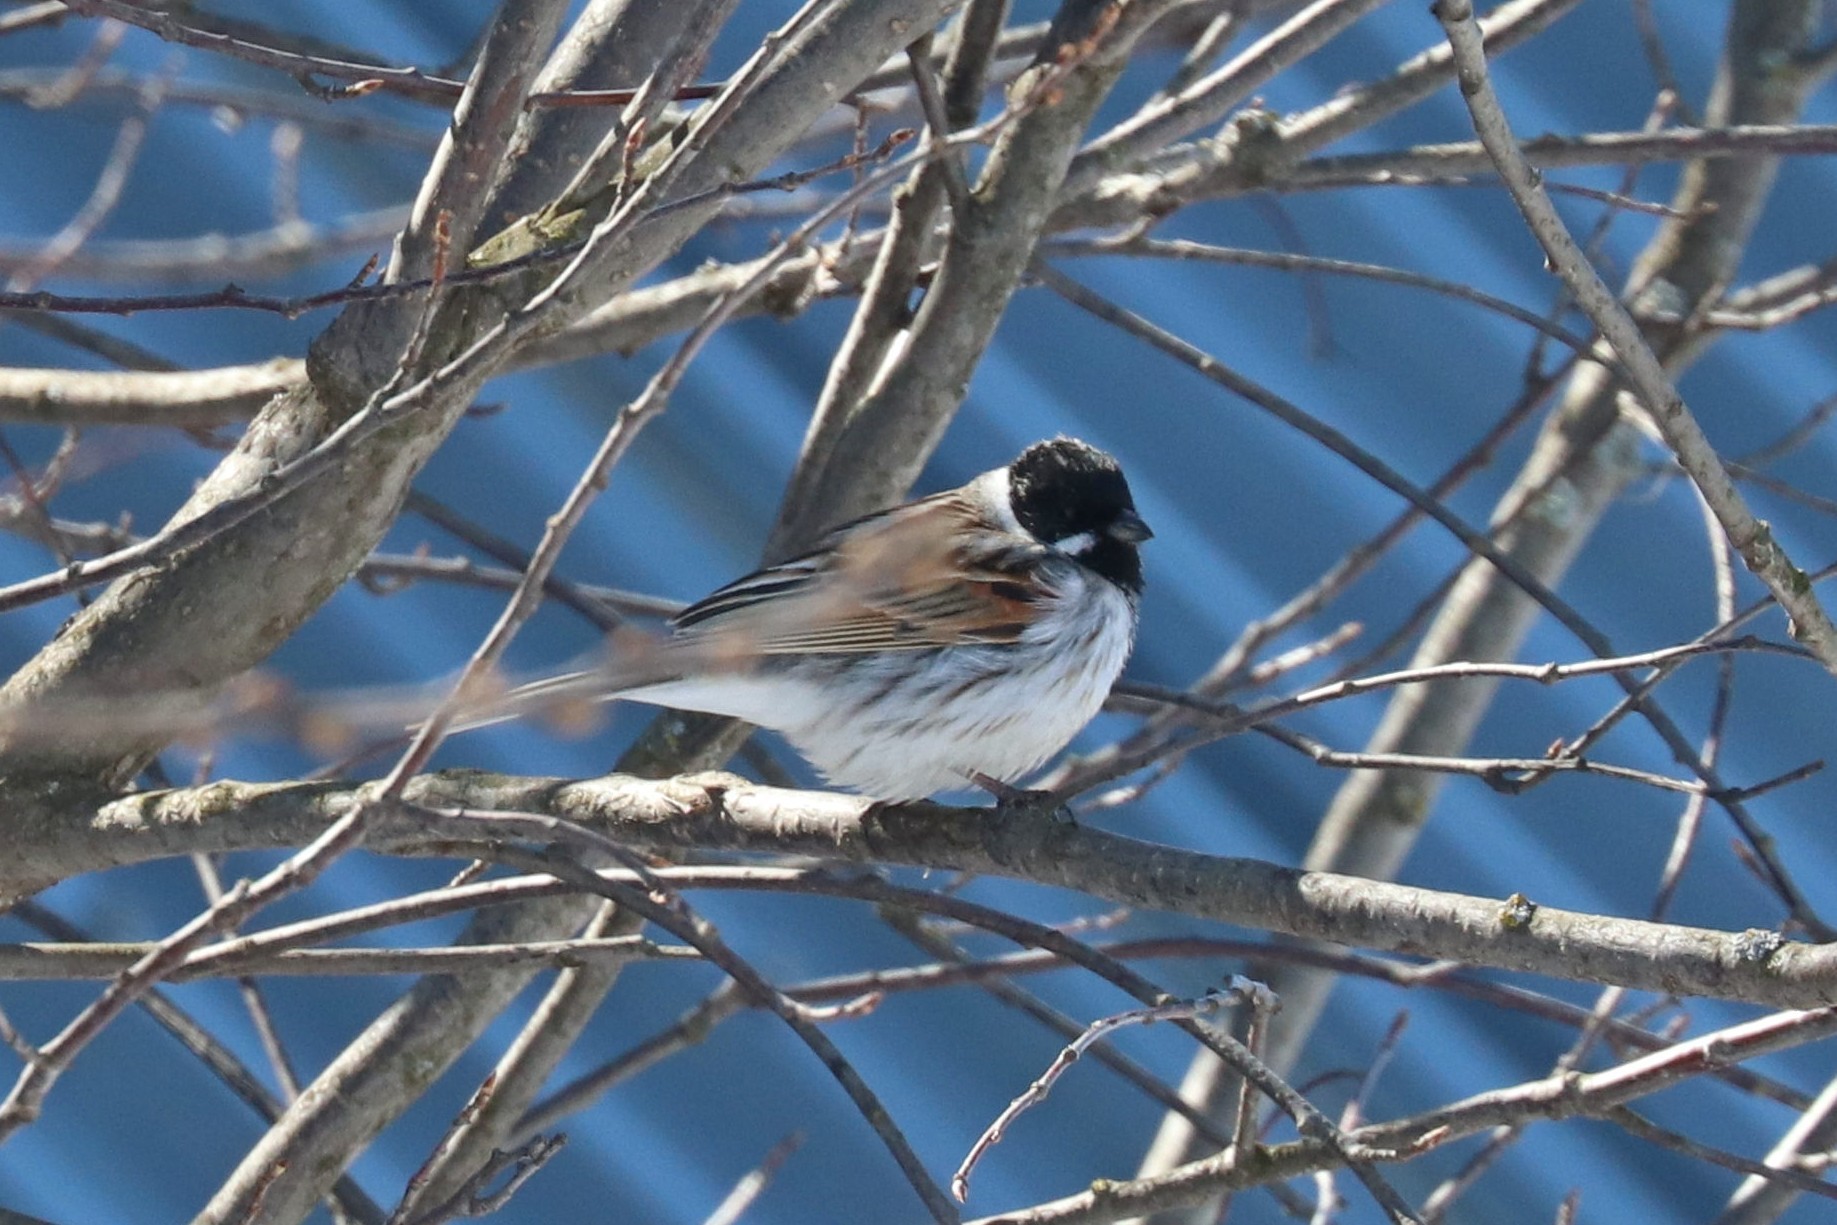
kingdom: Animalia
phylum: Chordata
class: Aves
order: Passeriformes
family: Emberizidae
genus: Emberiza
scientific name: Emberiza schoeniclus
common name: Reed bunting
